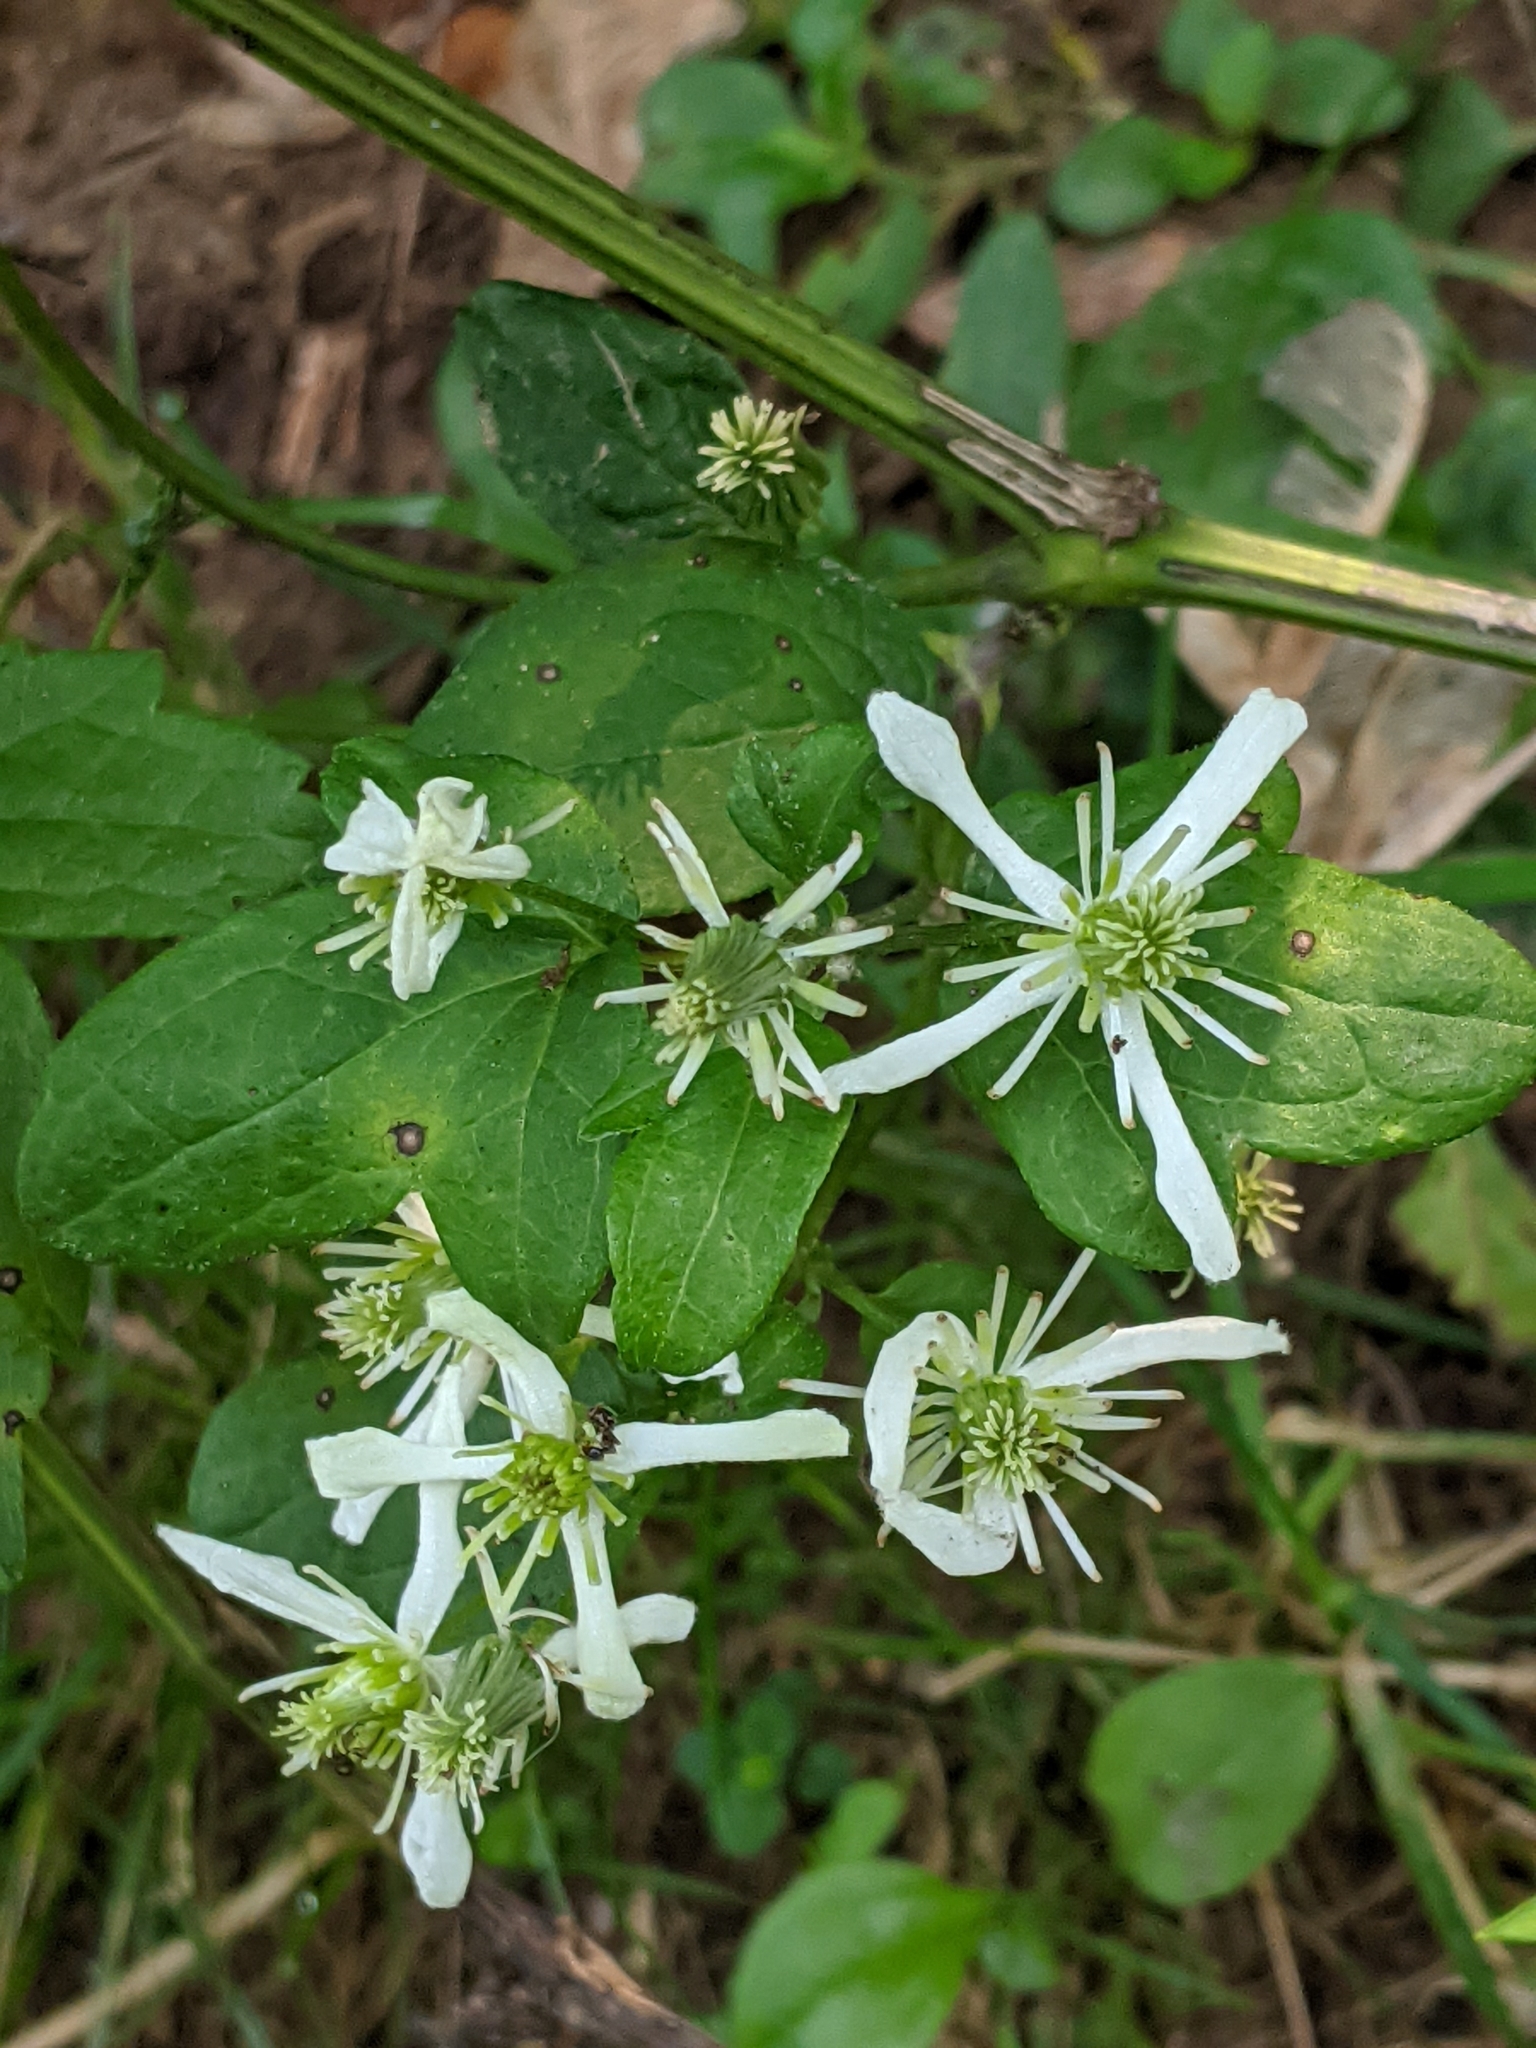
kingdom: Plantae
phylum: Tracheophyta
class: Magnoliopsida
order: Ranunculales
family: Ranunculaceae
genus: Clematis
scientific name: Clematis virginiana
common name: Virgin's-bower
